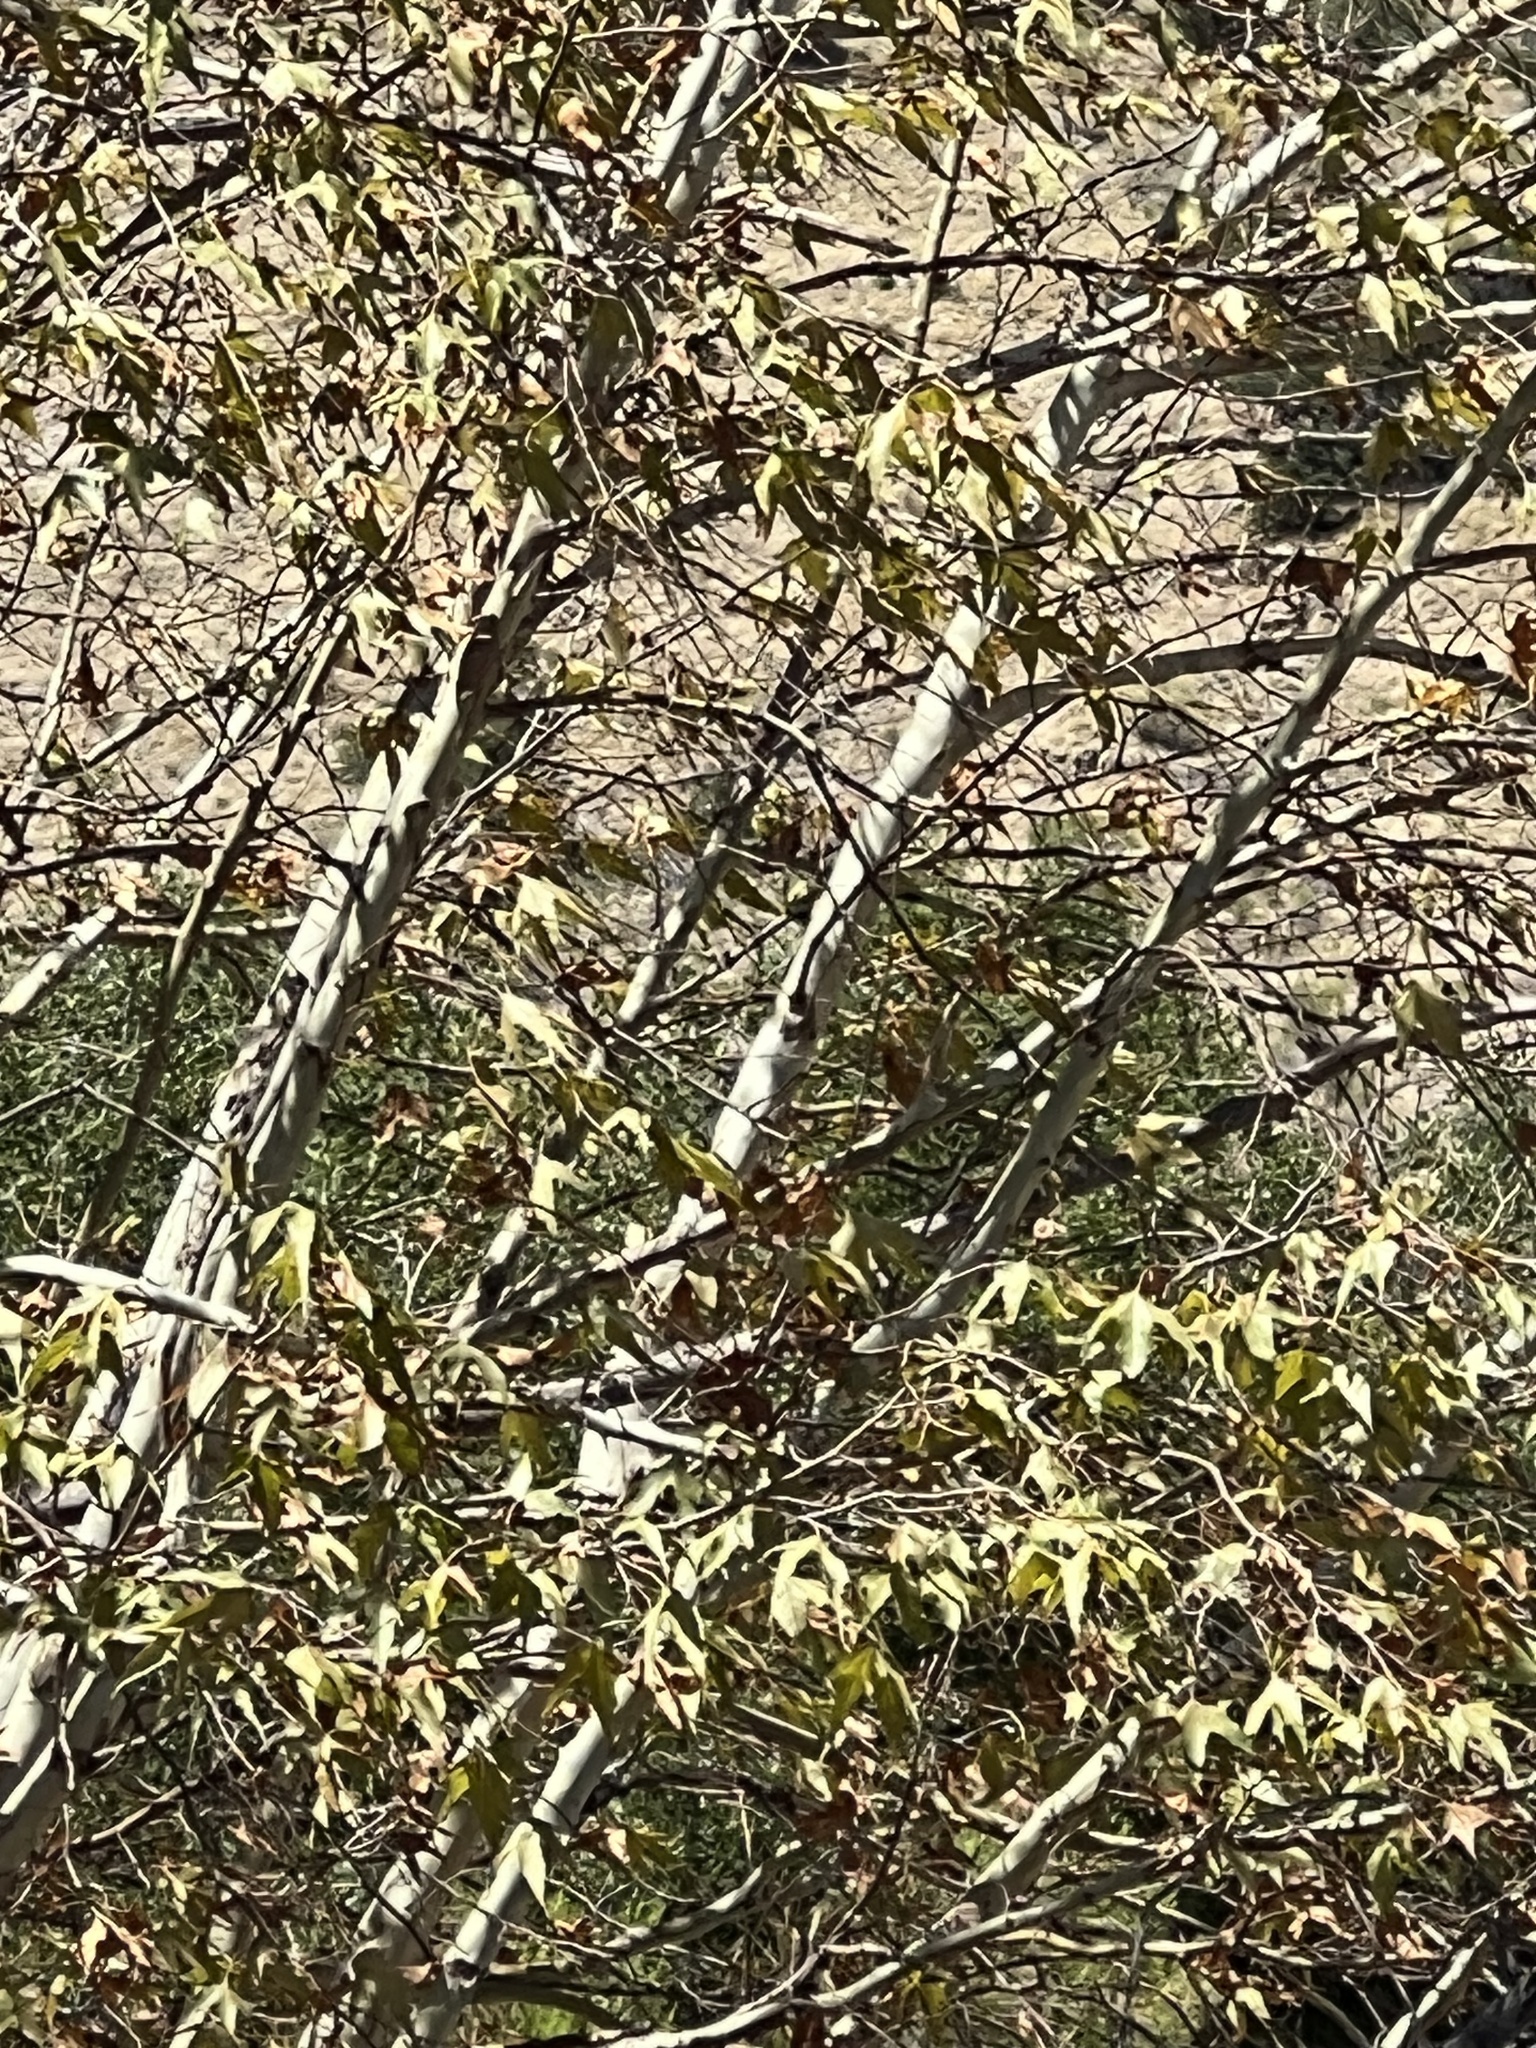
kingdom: Plantae
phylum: Tracheophyta
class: Magnoliopsida
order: Proteales
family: Platanaceae
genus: Platanus
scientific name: Platanus wrightii
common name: Arizona sycamore
